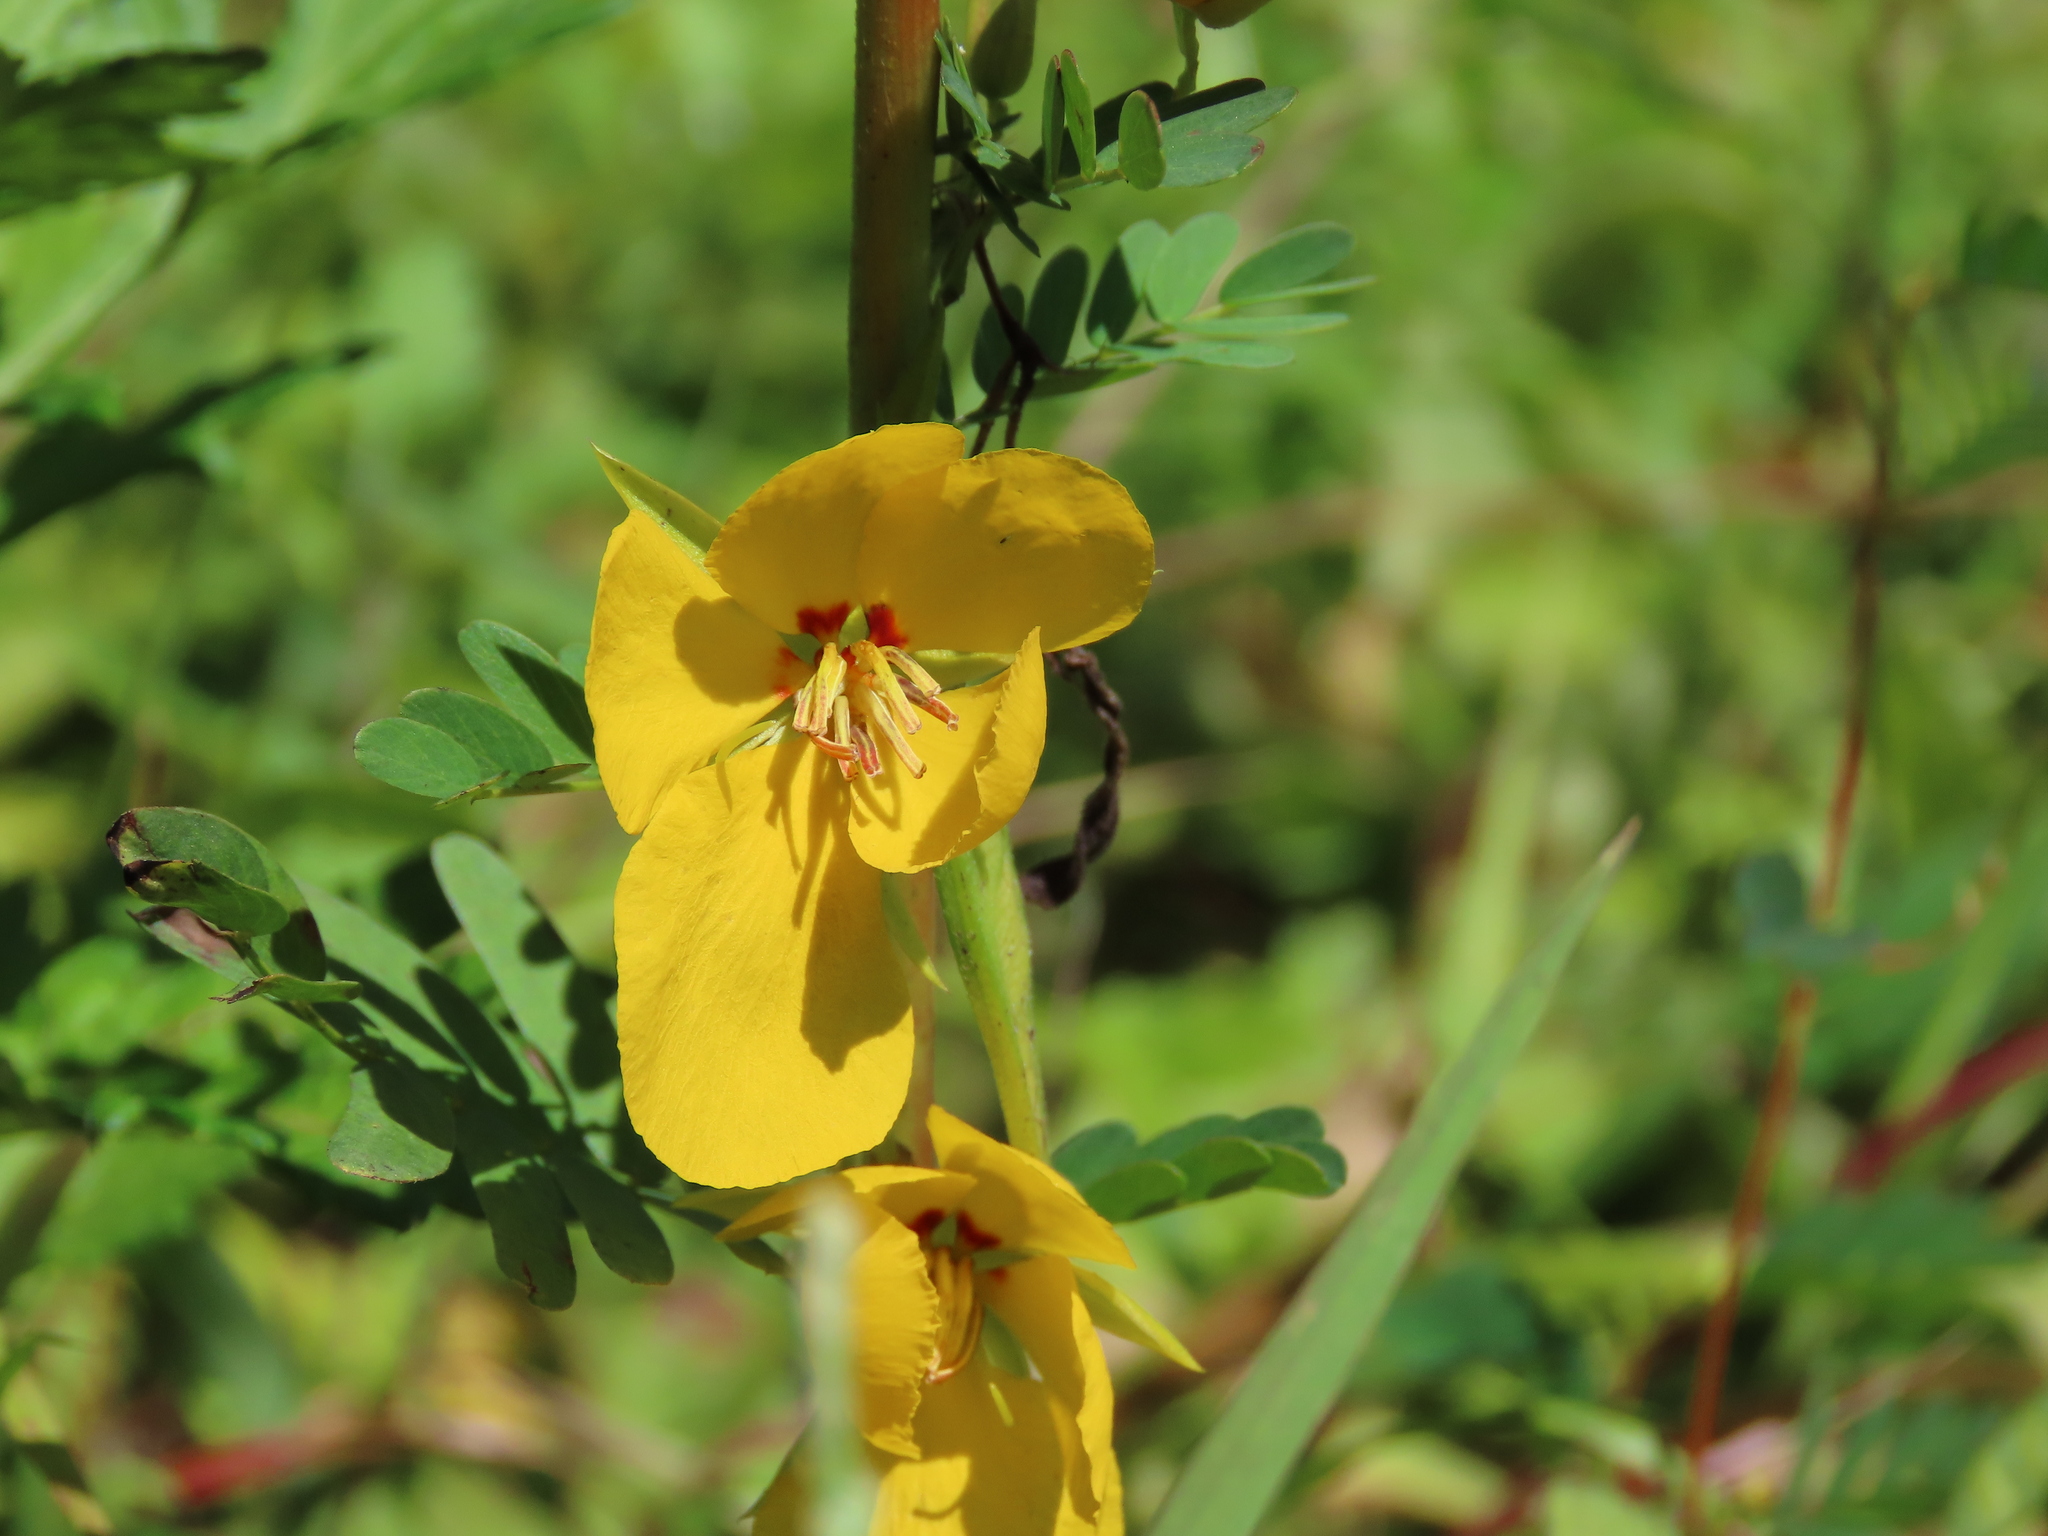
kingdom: Plantae
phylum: Tracheophyta
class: Magnoliopsida
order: Fabales
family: Fabaceae
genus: Chamaecrista
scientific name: Chamaecrista fasciculata
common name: Golden cassia
